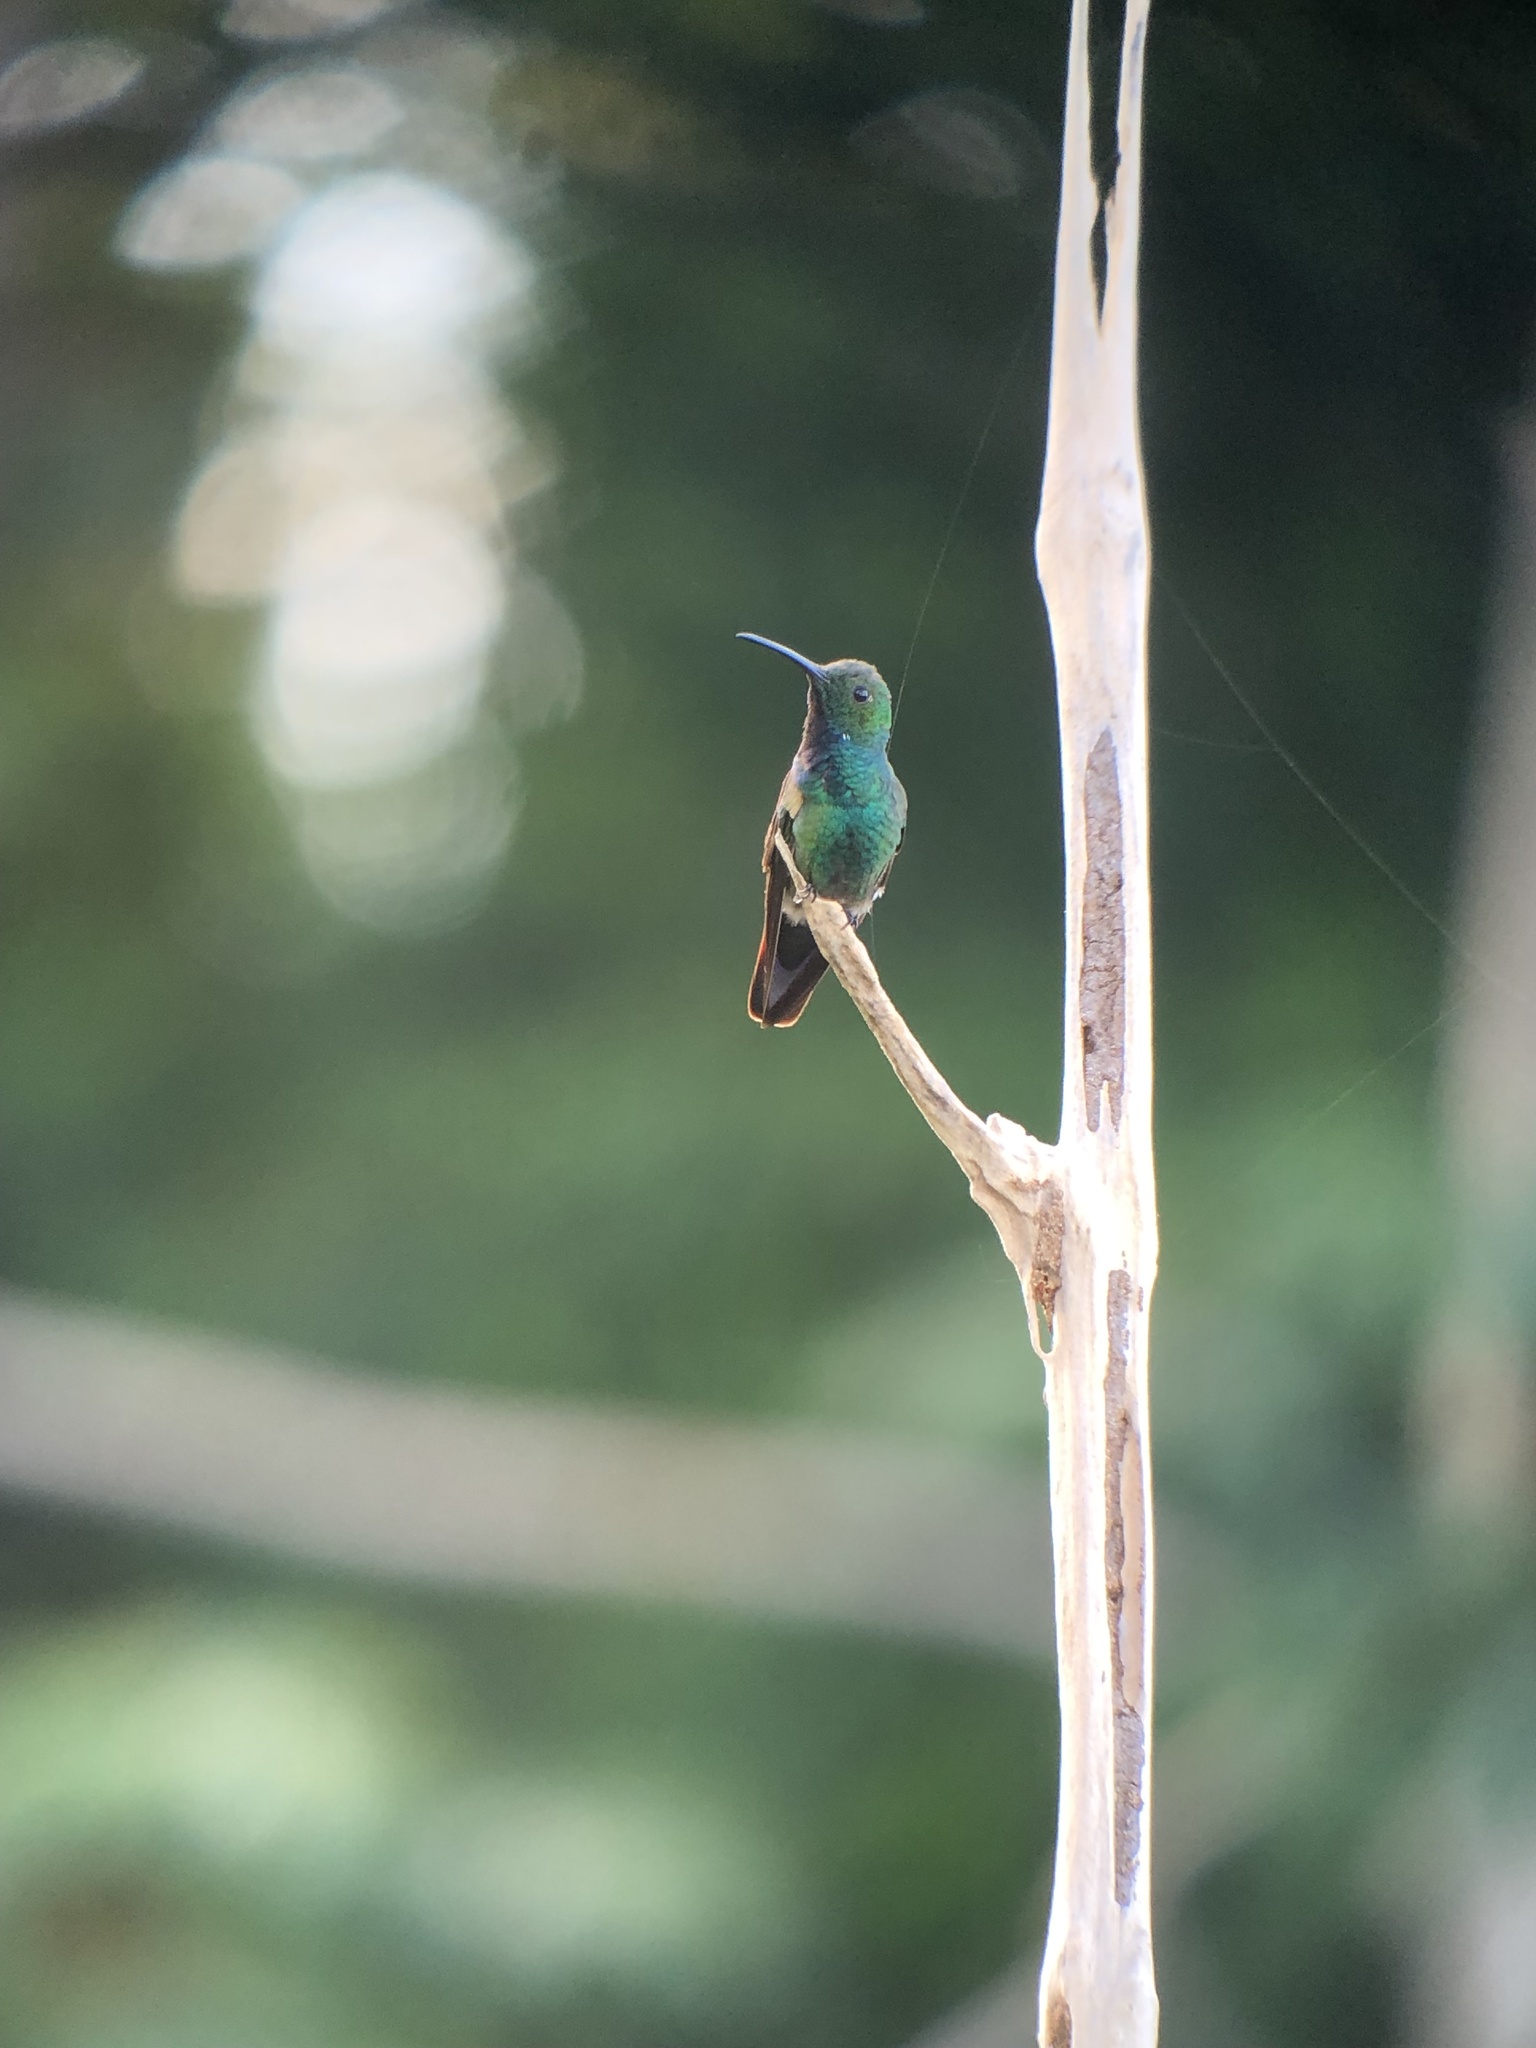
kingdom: Animalia
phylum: Chordata
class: Aves
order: Apodiformes
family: Trochilidae
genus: Anthracothorax
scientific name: Anthracothorax prevostii
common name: Green-breasted mango
